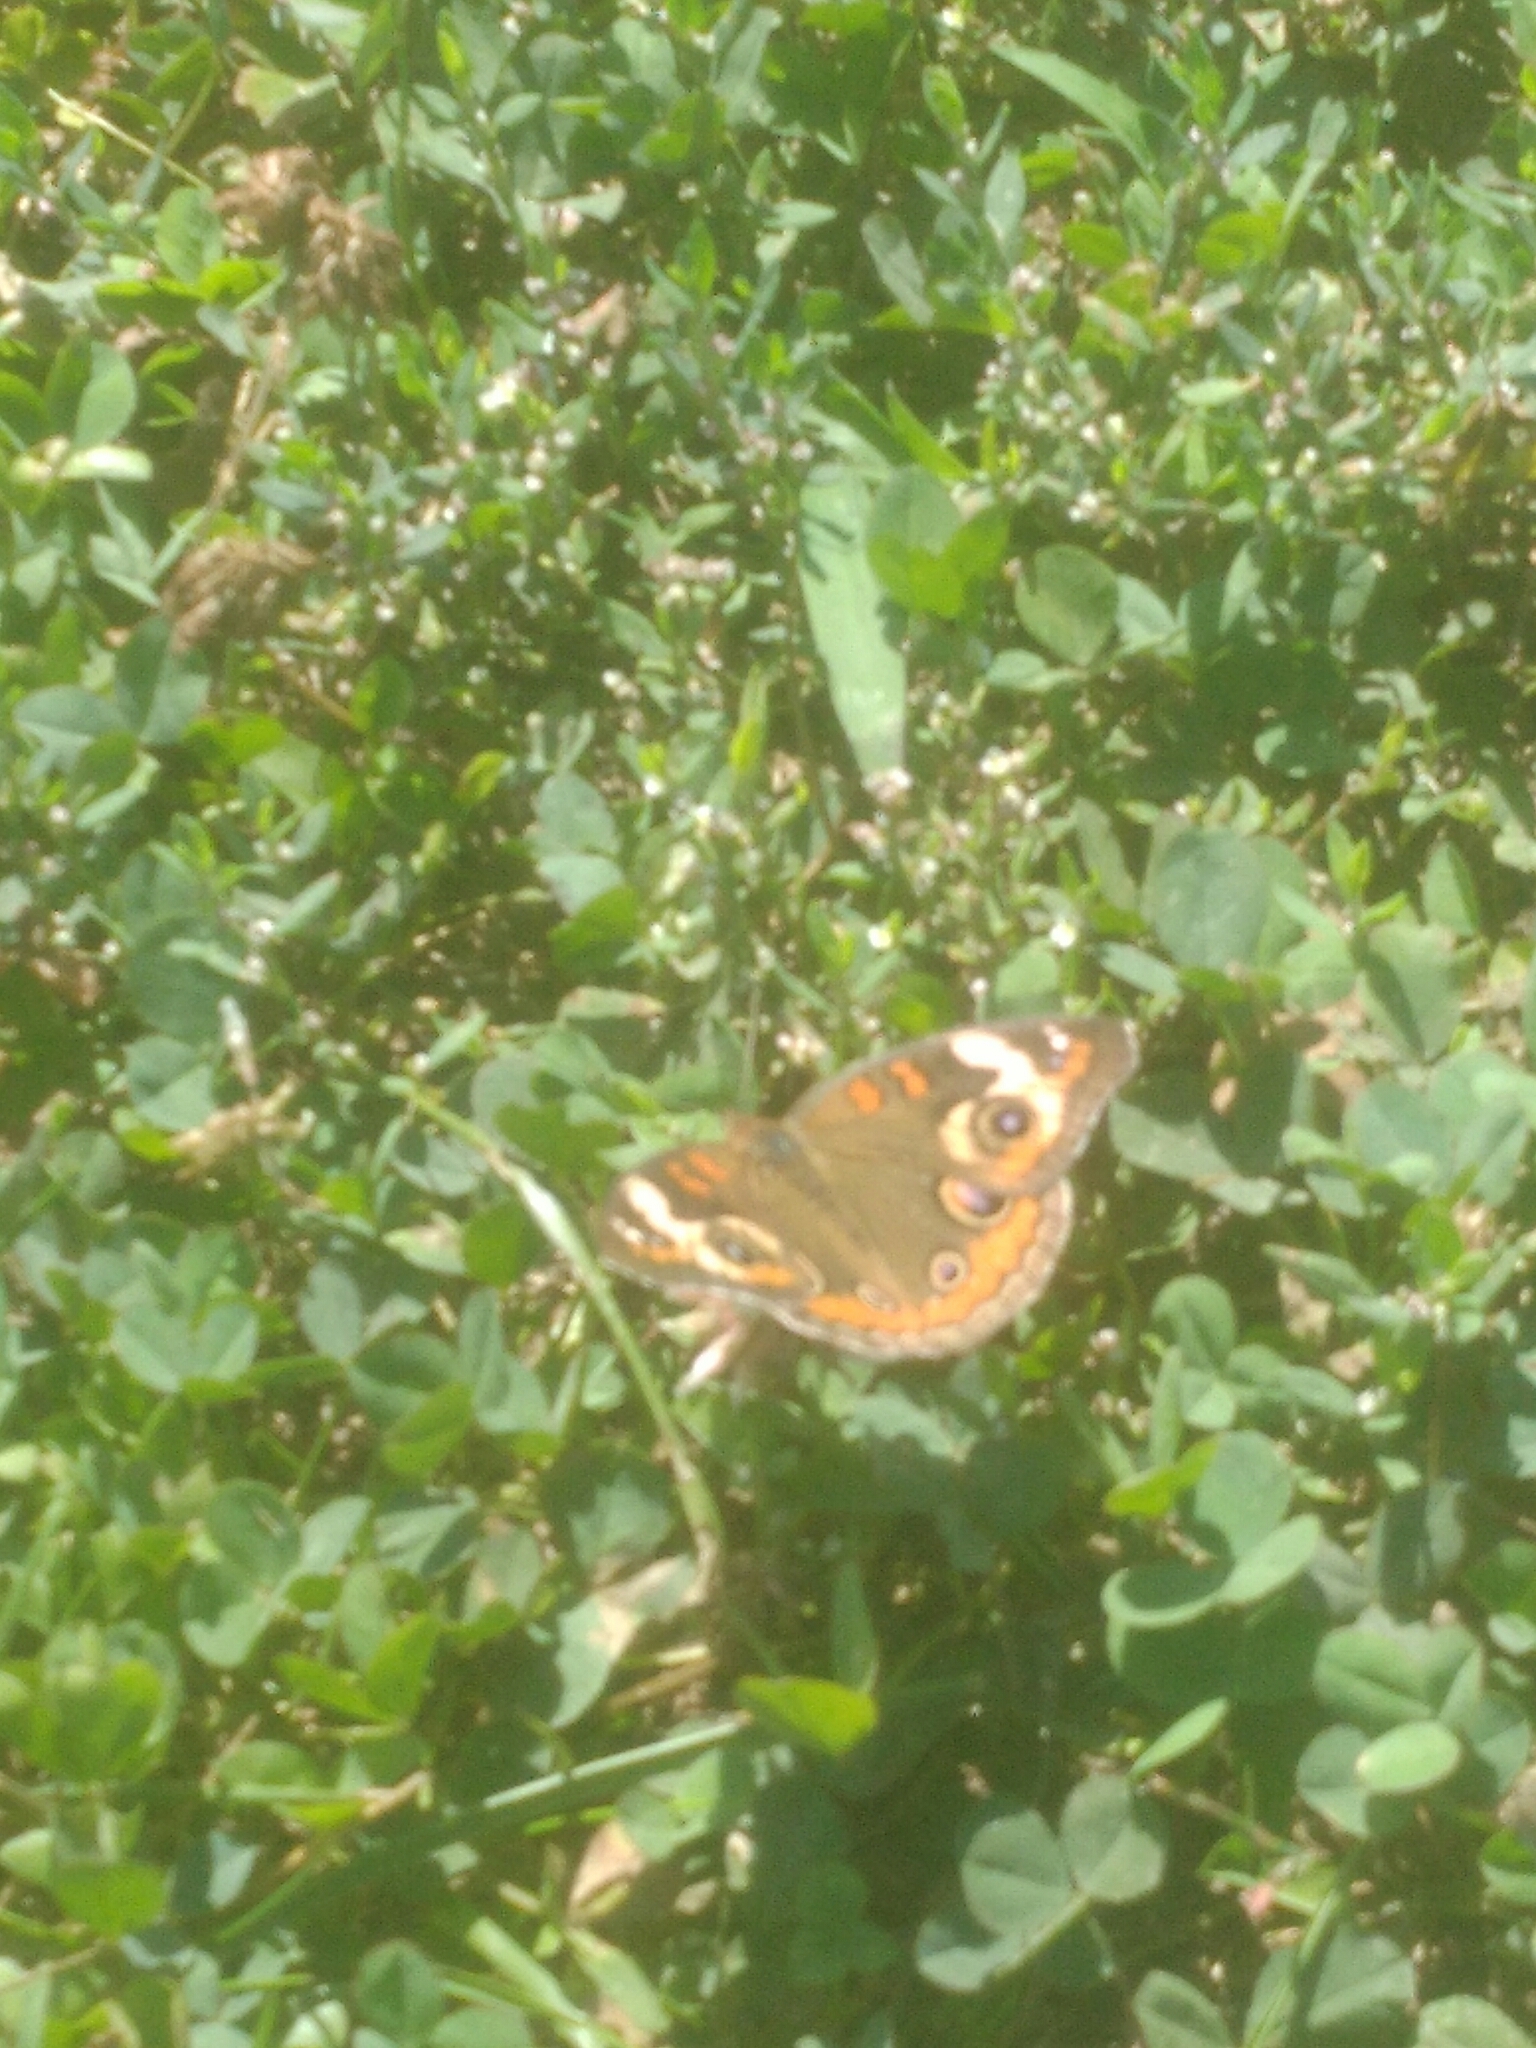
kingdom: Animalia
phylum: Arthropoda
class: Insecta
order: Lepidoptera
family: Nymphalidae
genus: Junonia
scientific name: Junonia coenia
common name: Common buckeye
